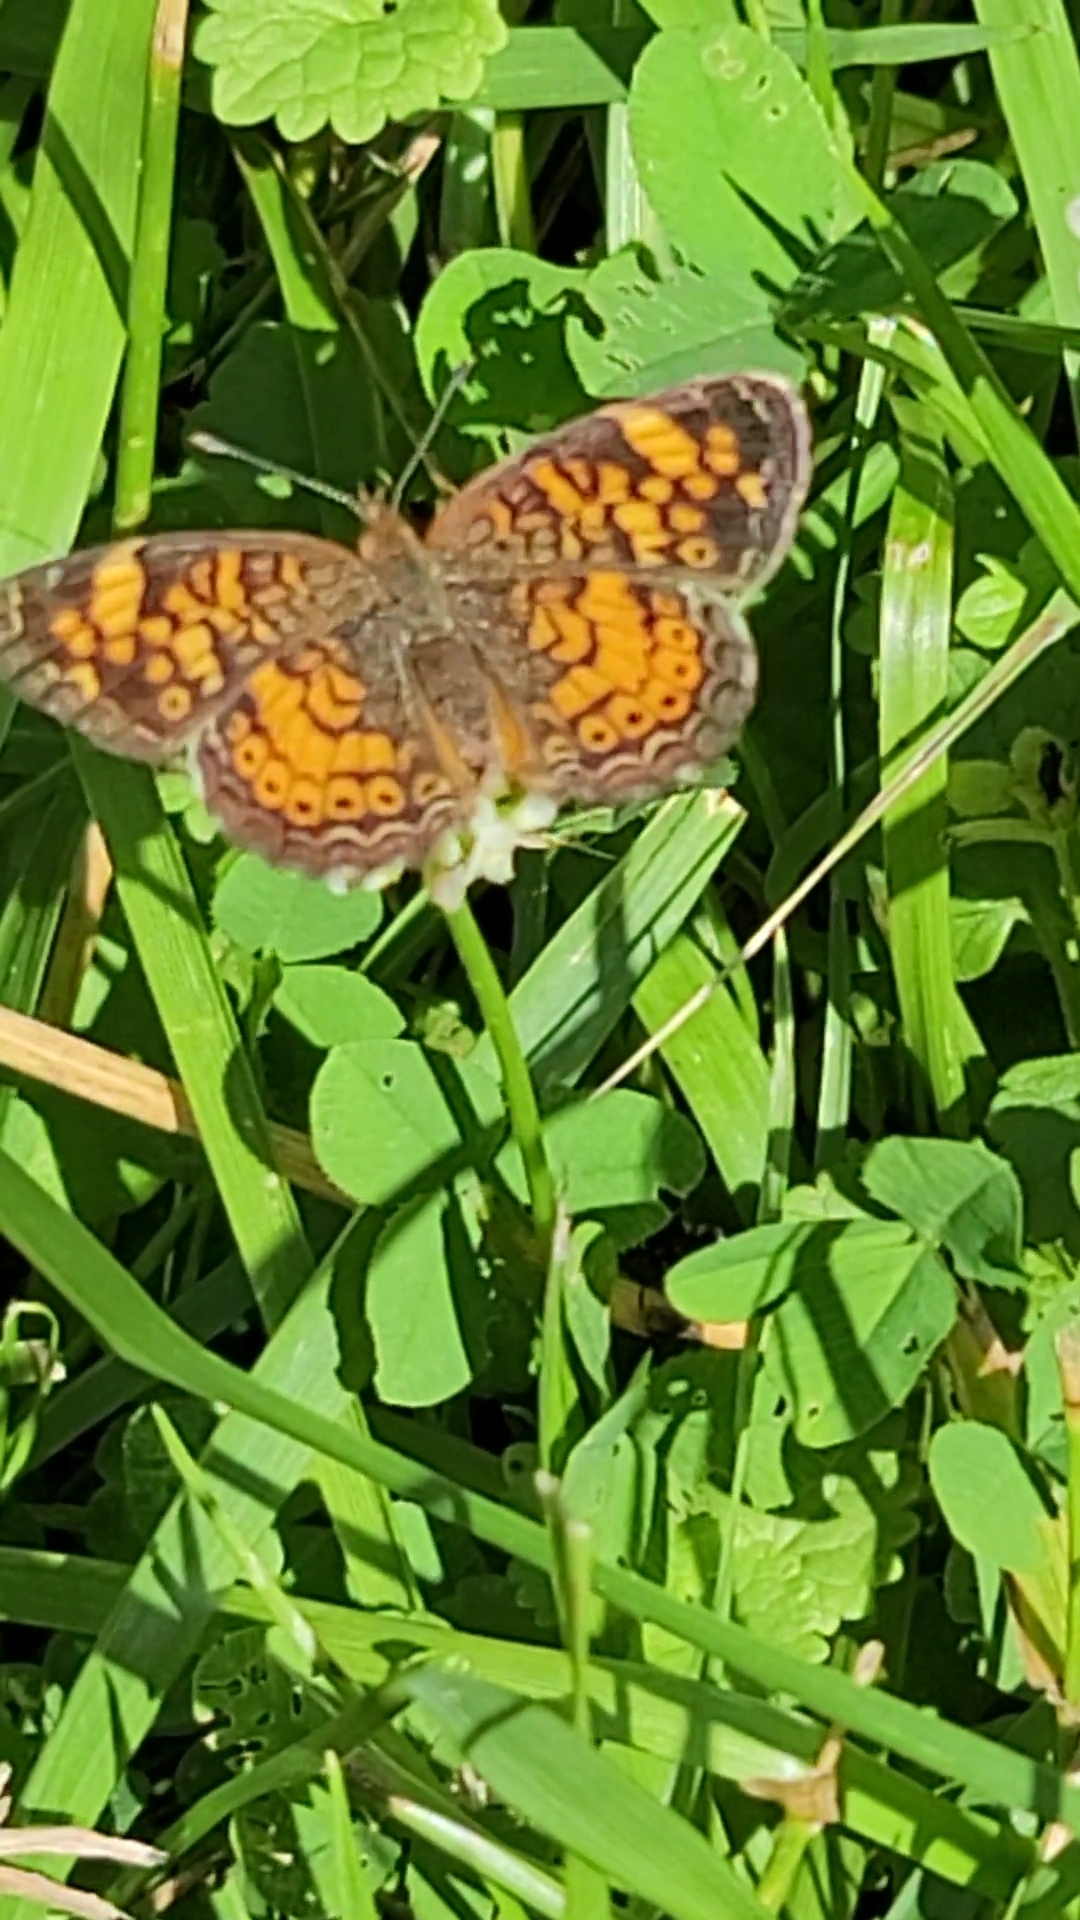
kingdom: Animalia
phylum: Arthropoda
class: Insecta
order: Lepidoptera
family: Nymphalidae
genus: Phyciodes
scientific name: Phyciodes tharos
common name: Pearl crescent
